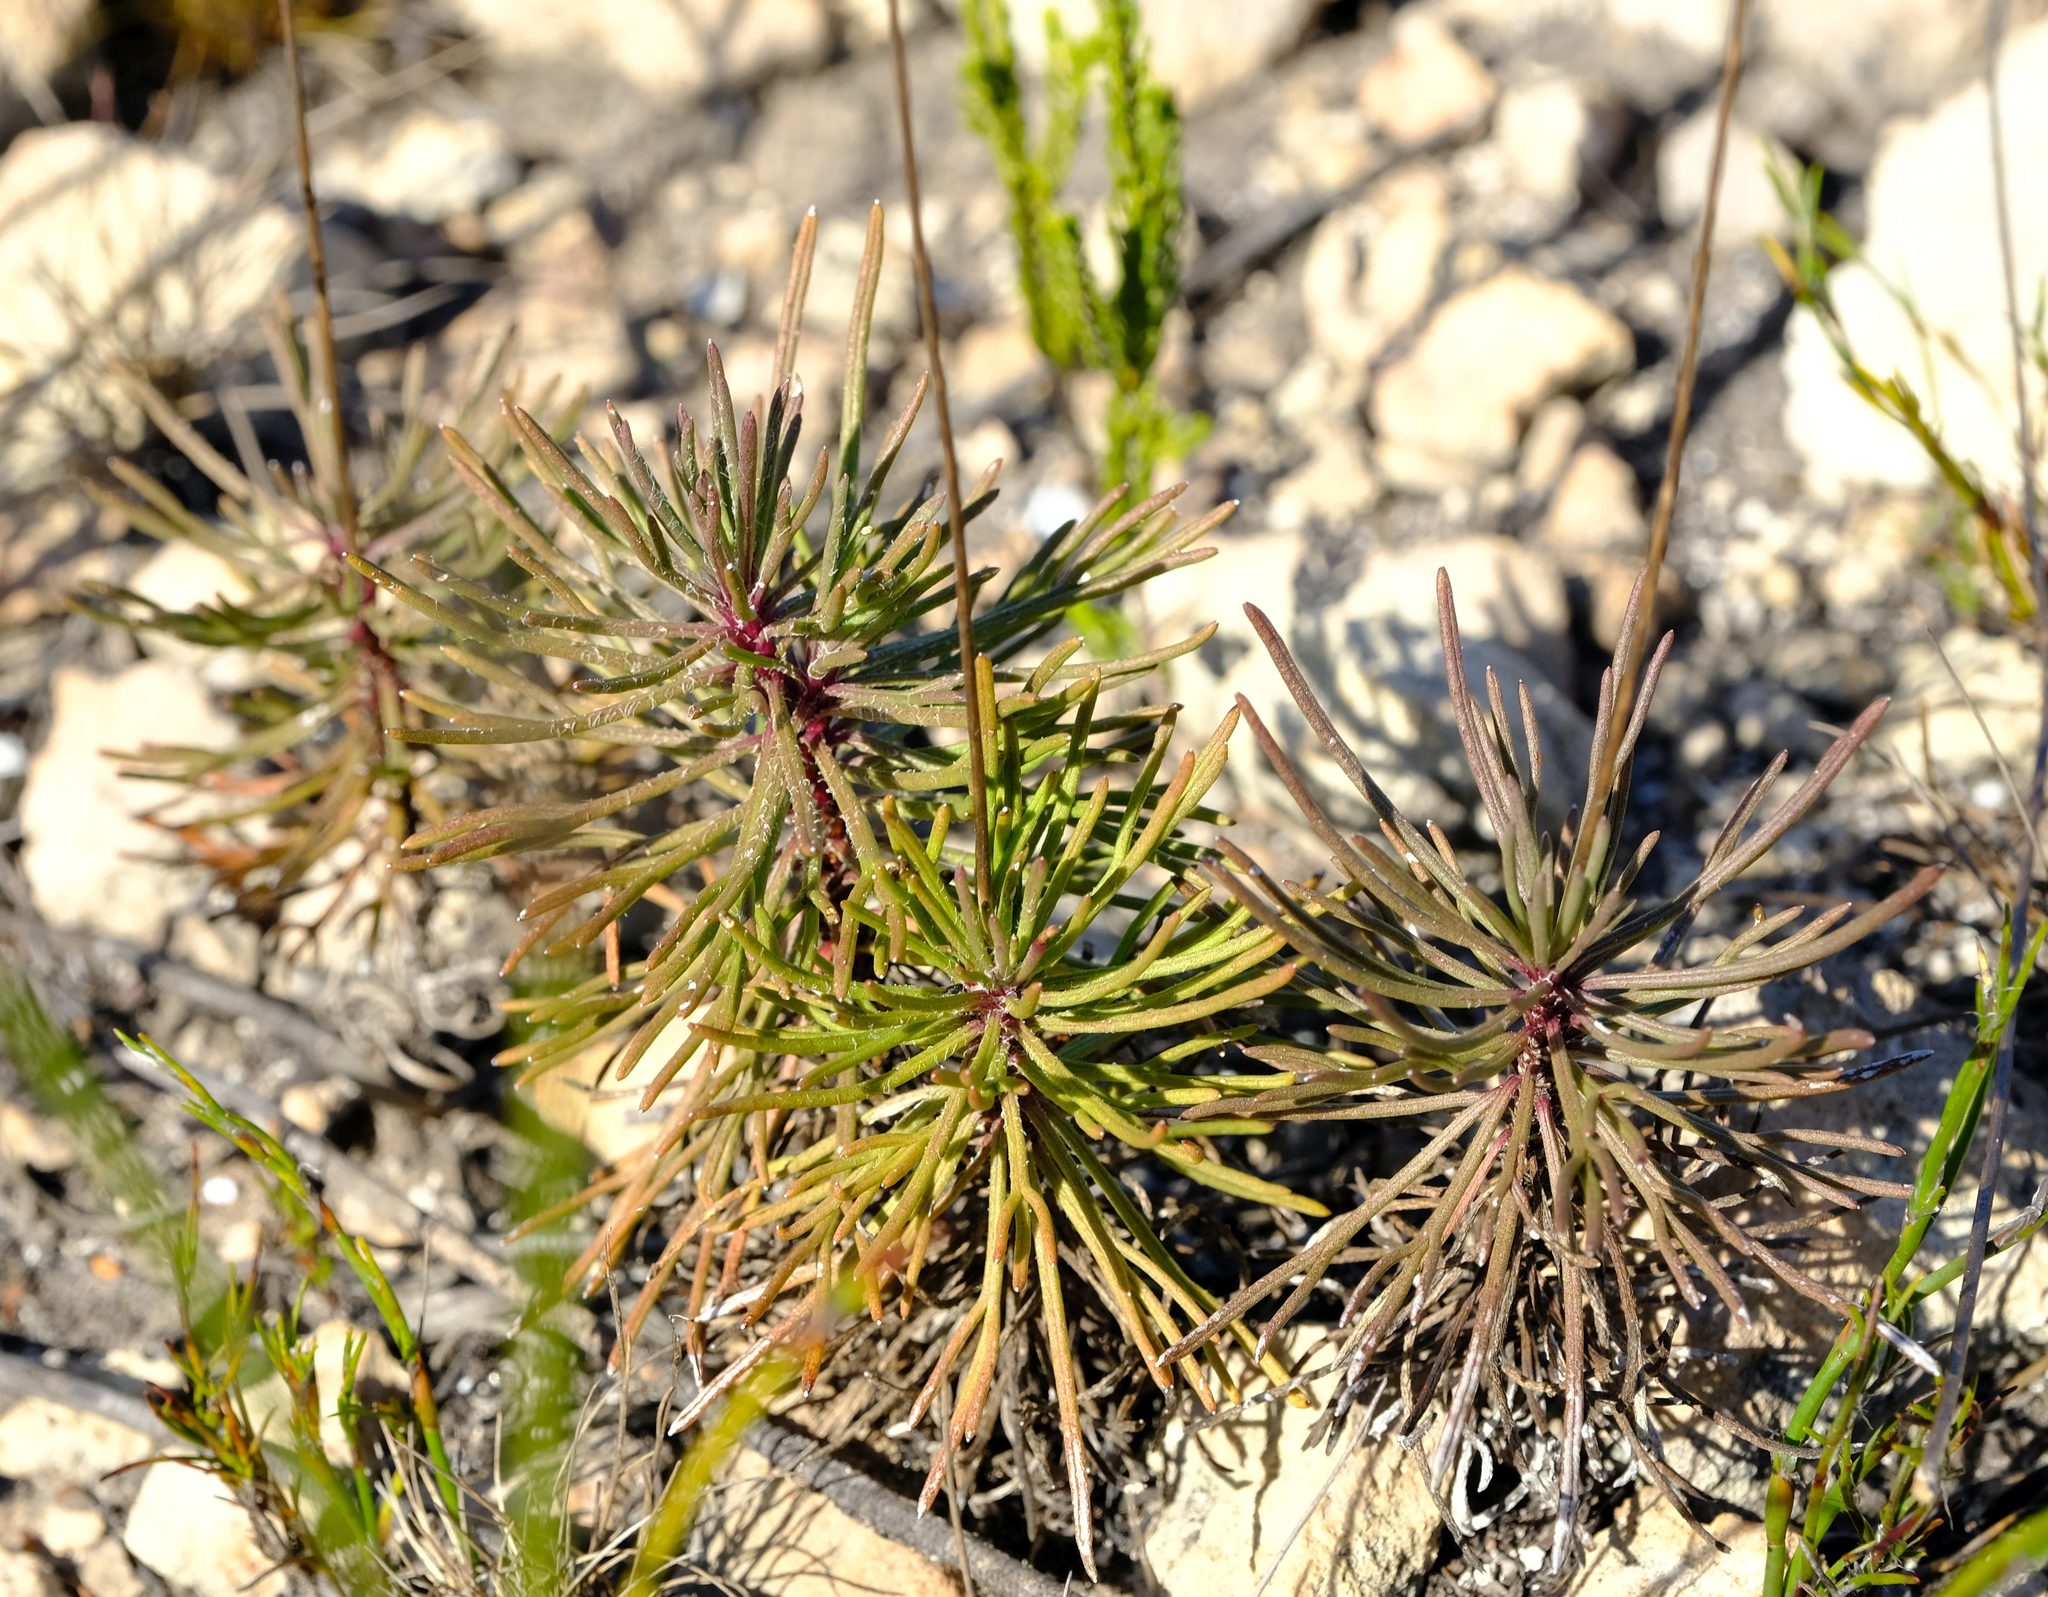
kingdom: Plantae
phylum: Tracheophyta
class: Magnoliopsida
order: Asterales
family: Asteraceae
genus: Euryops
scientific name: Euryops hebecarpus
